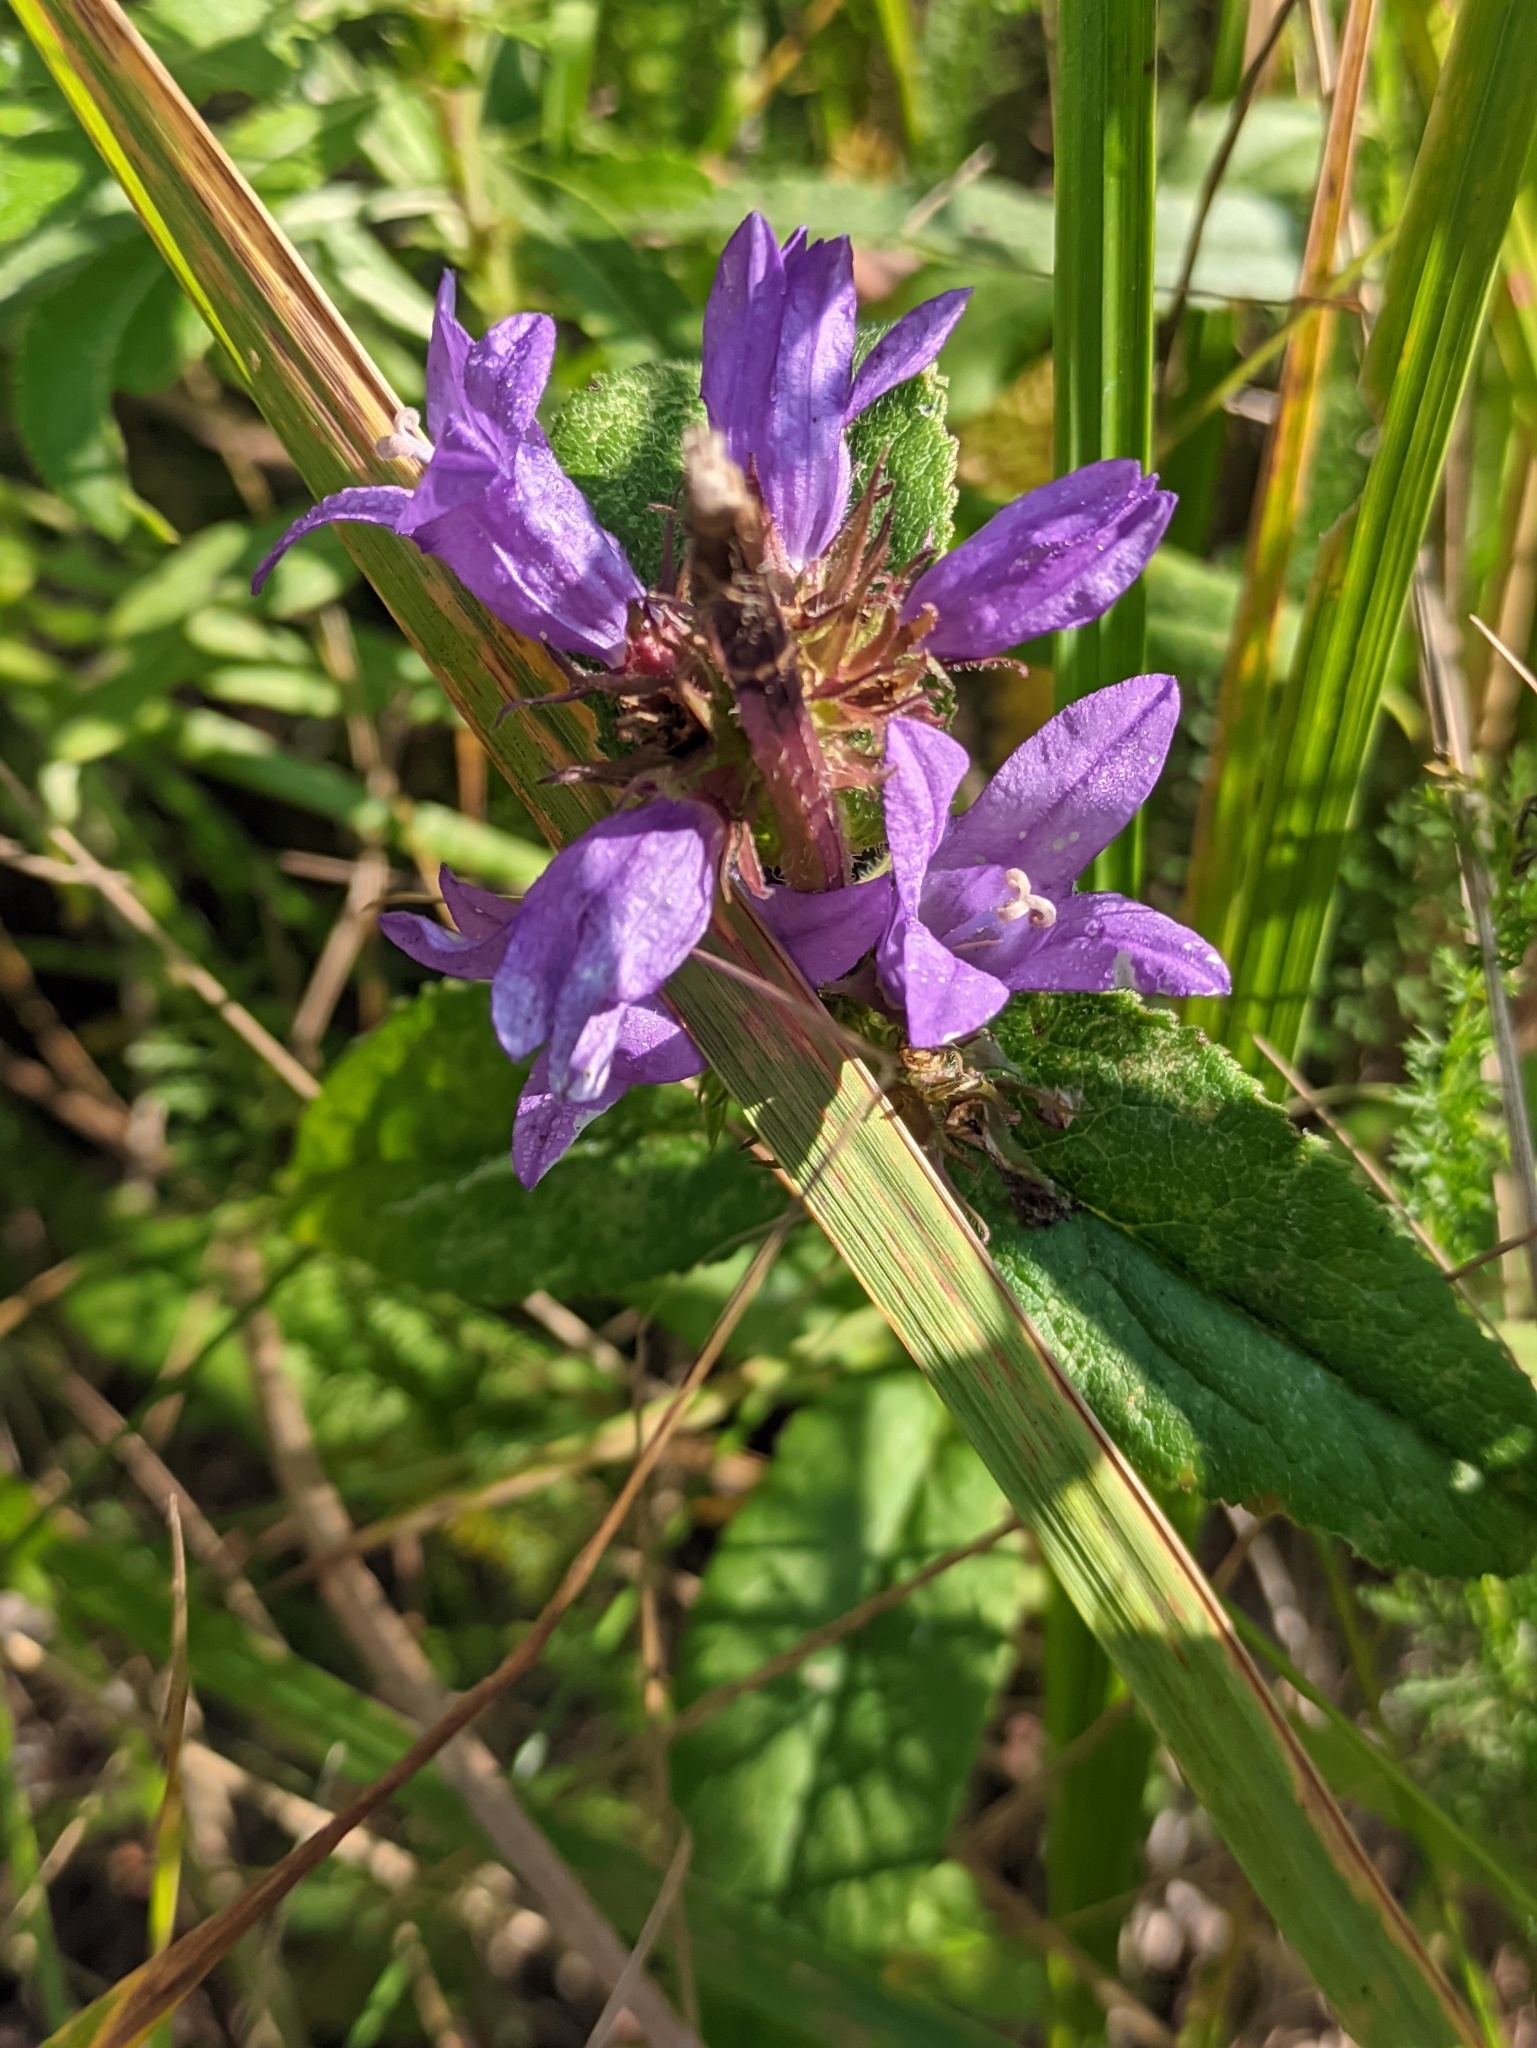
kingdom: Plantae
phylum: Tracheophyta
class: Magnoliopsida
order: Asterales
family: Campanulaceae
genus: Campanula
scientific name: Campanula glomerata
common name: Clustered bellflower
